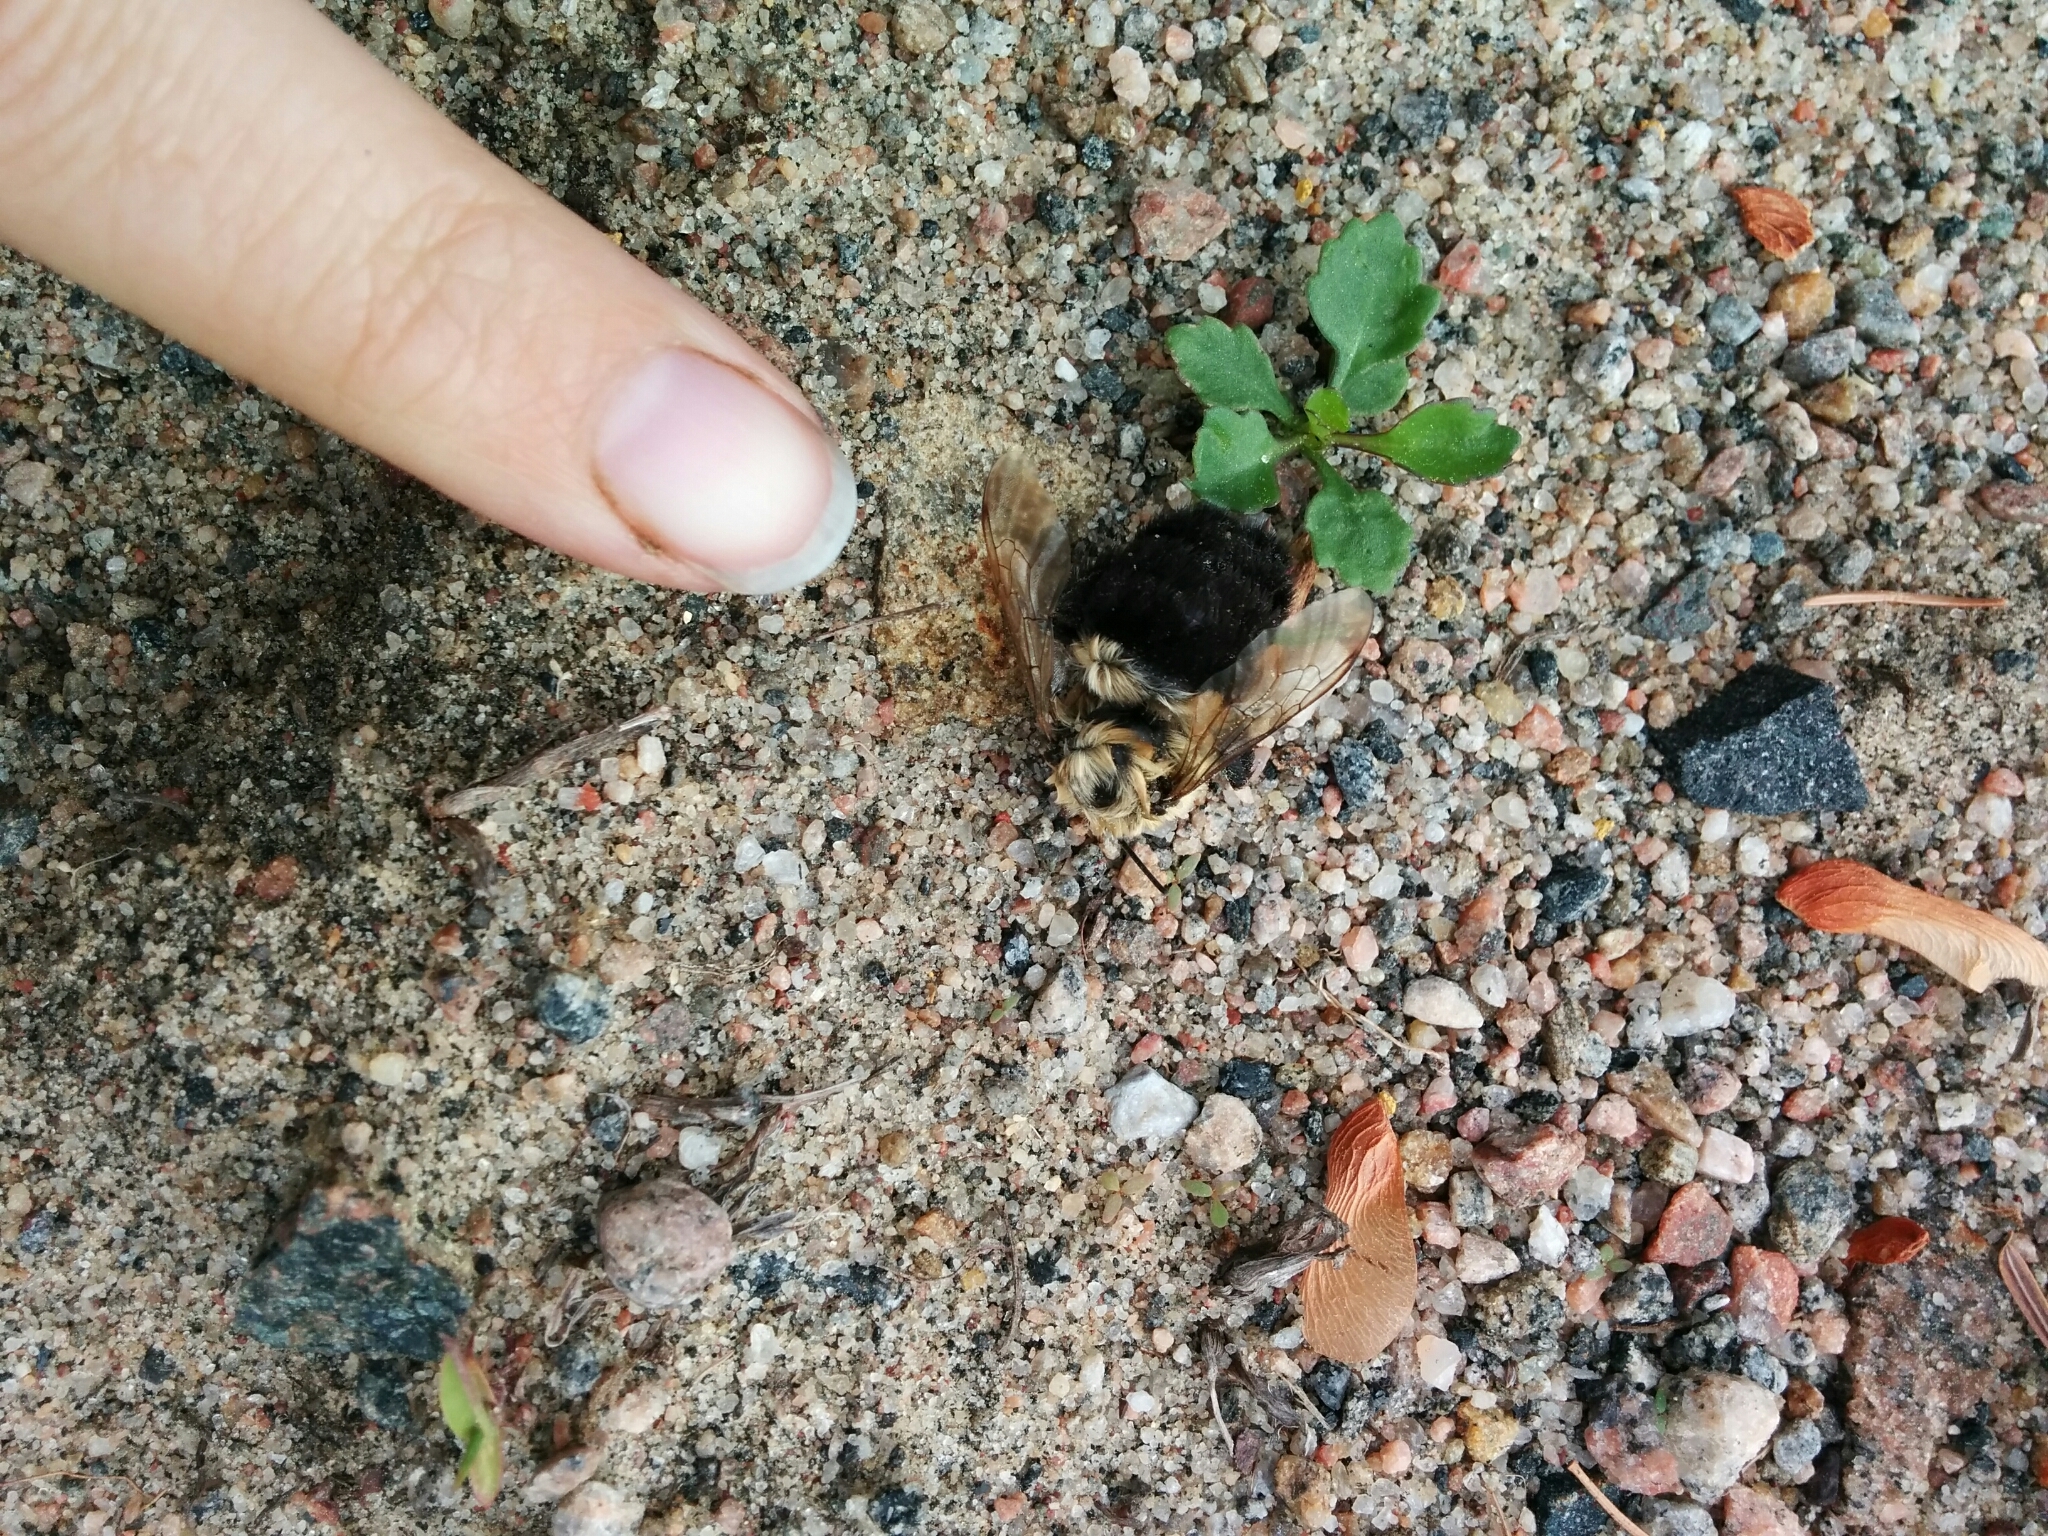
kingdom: Animalia
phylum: Arthropoda
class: Insecta
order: Hymenoptera
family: Apidae
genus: Bombus
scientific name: Bombus impatiens
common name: Common eastern bumble bee
